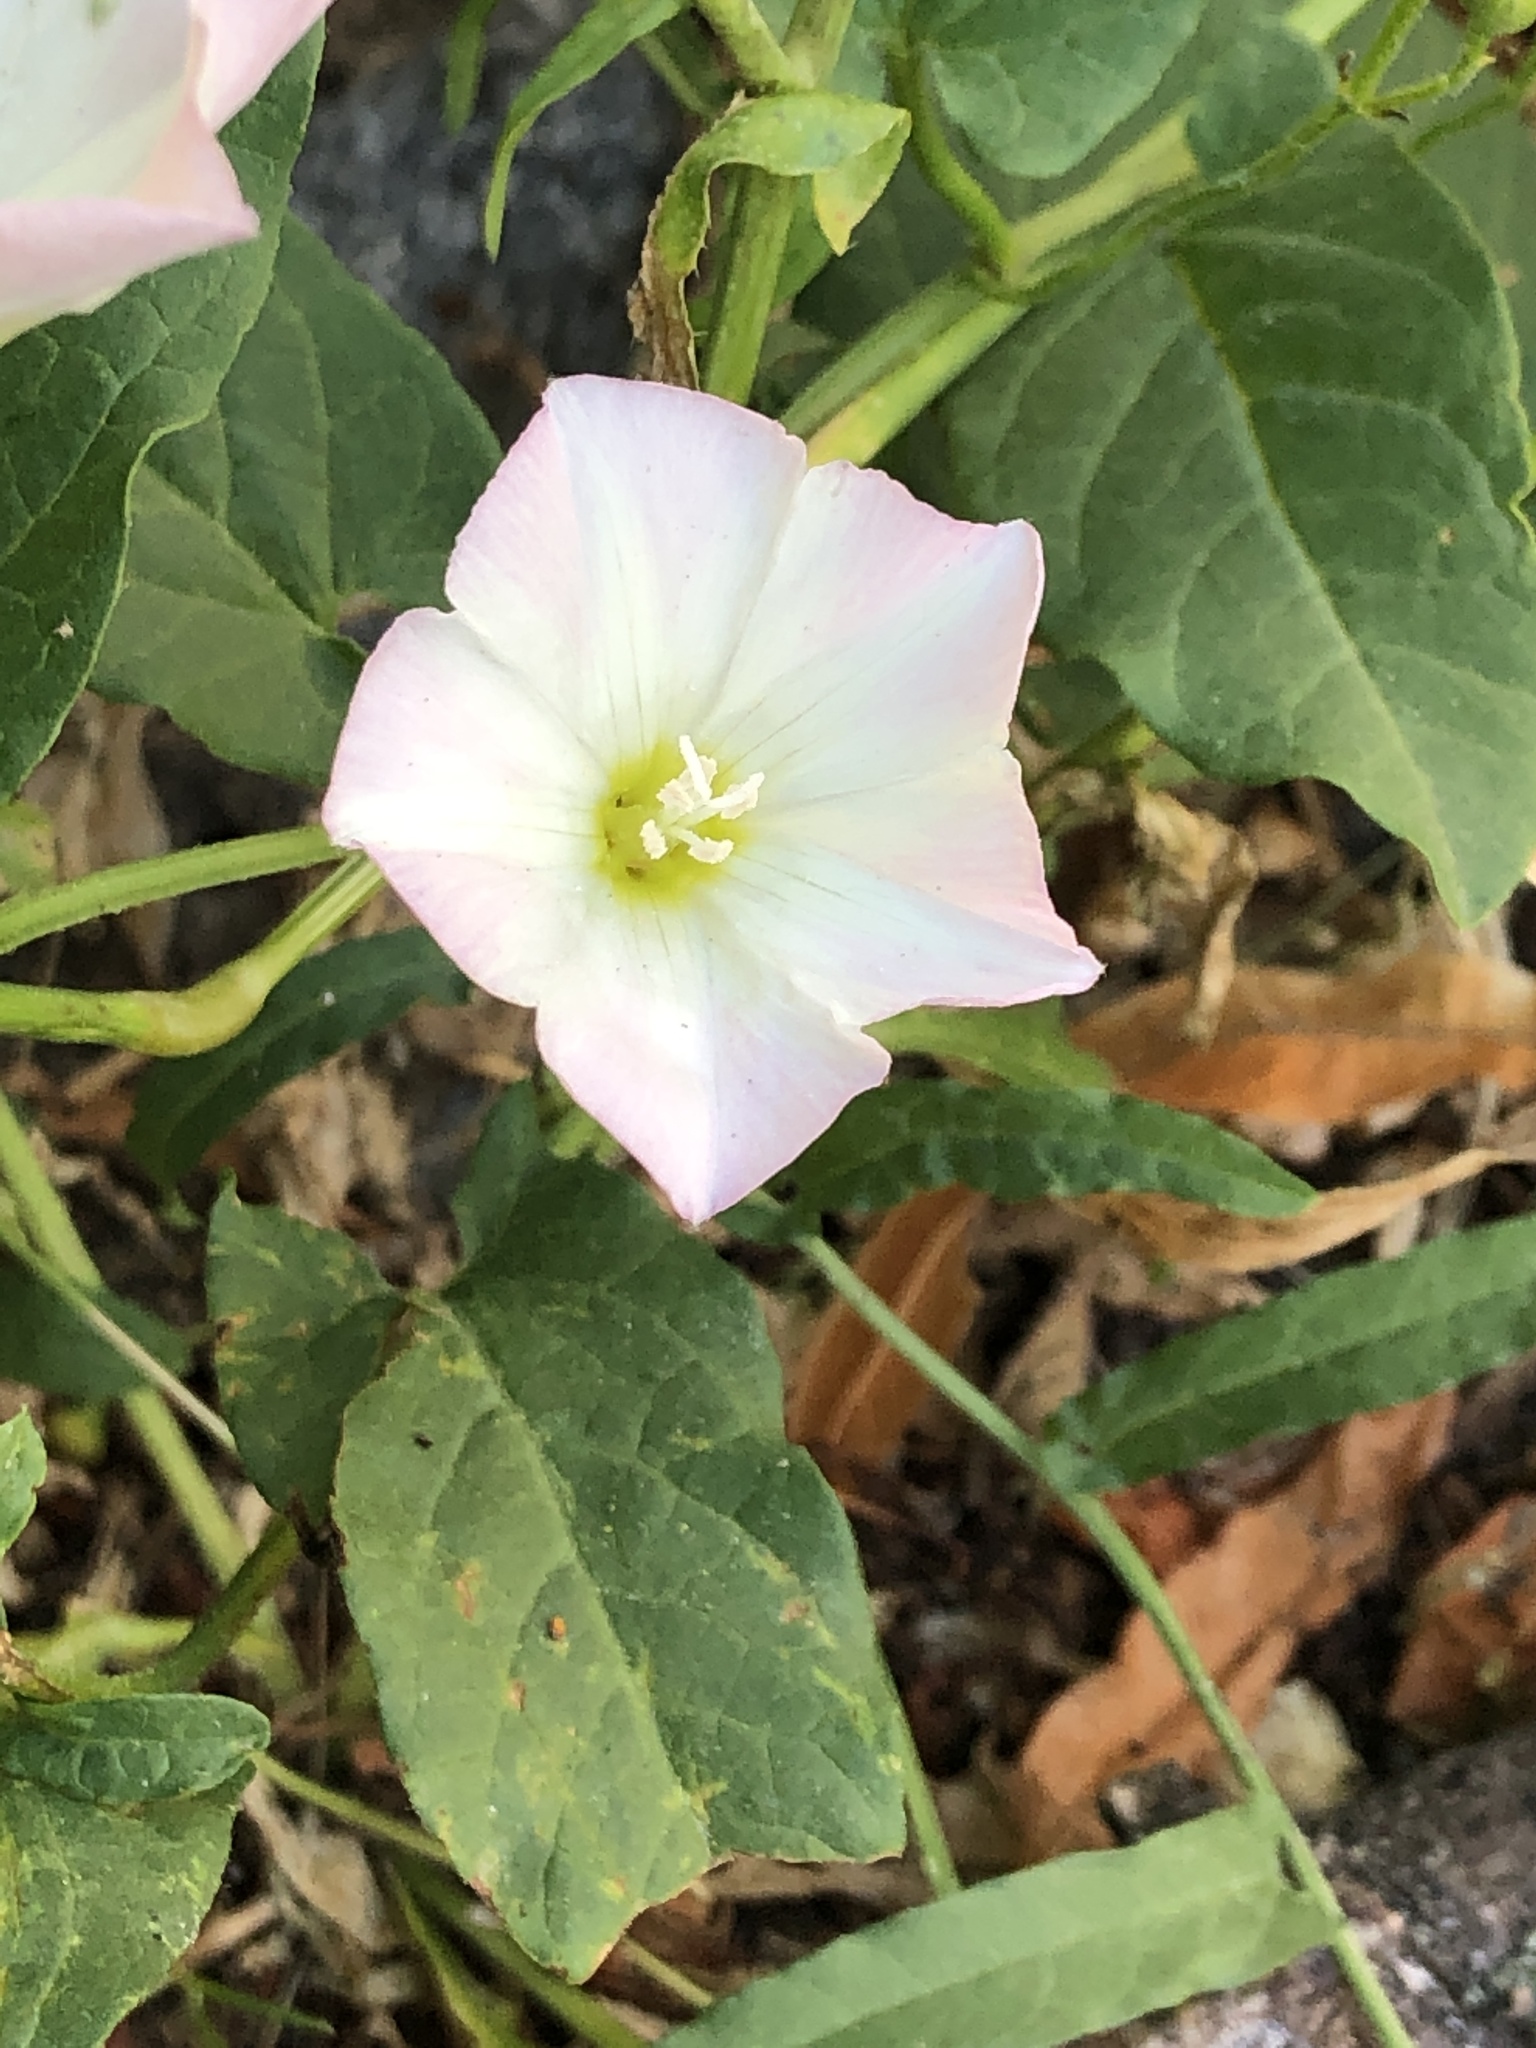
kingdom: Plantae
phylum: Tracheophyta
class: Magnoliopsida
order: Solanales
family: Convolvulaceae
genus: Convolvulus
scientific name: Convolvulus arvensis
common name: Field bindweed
